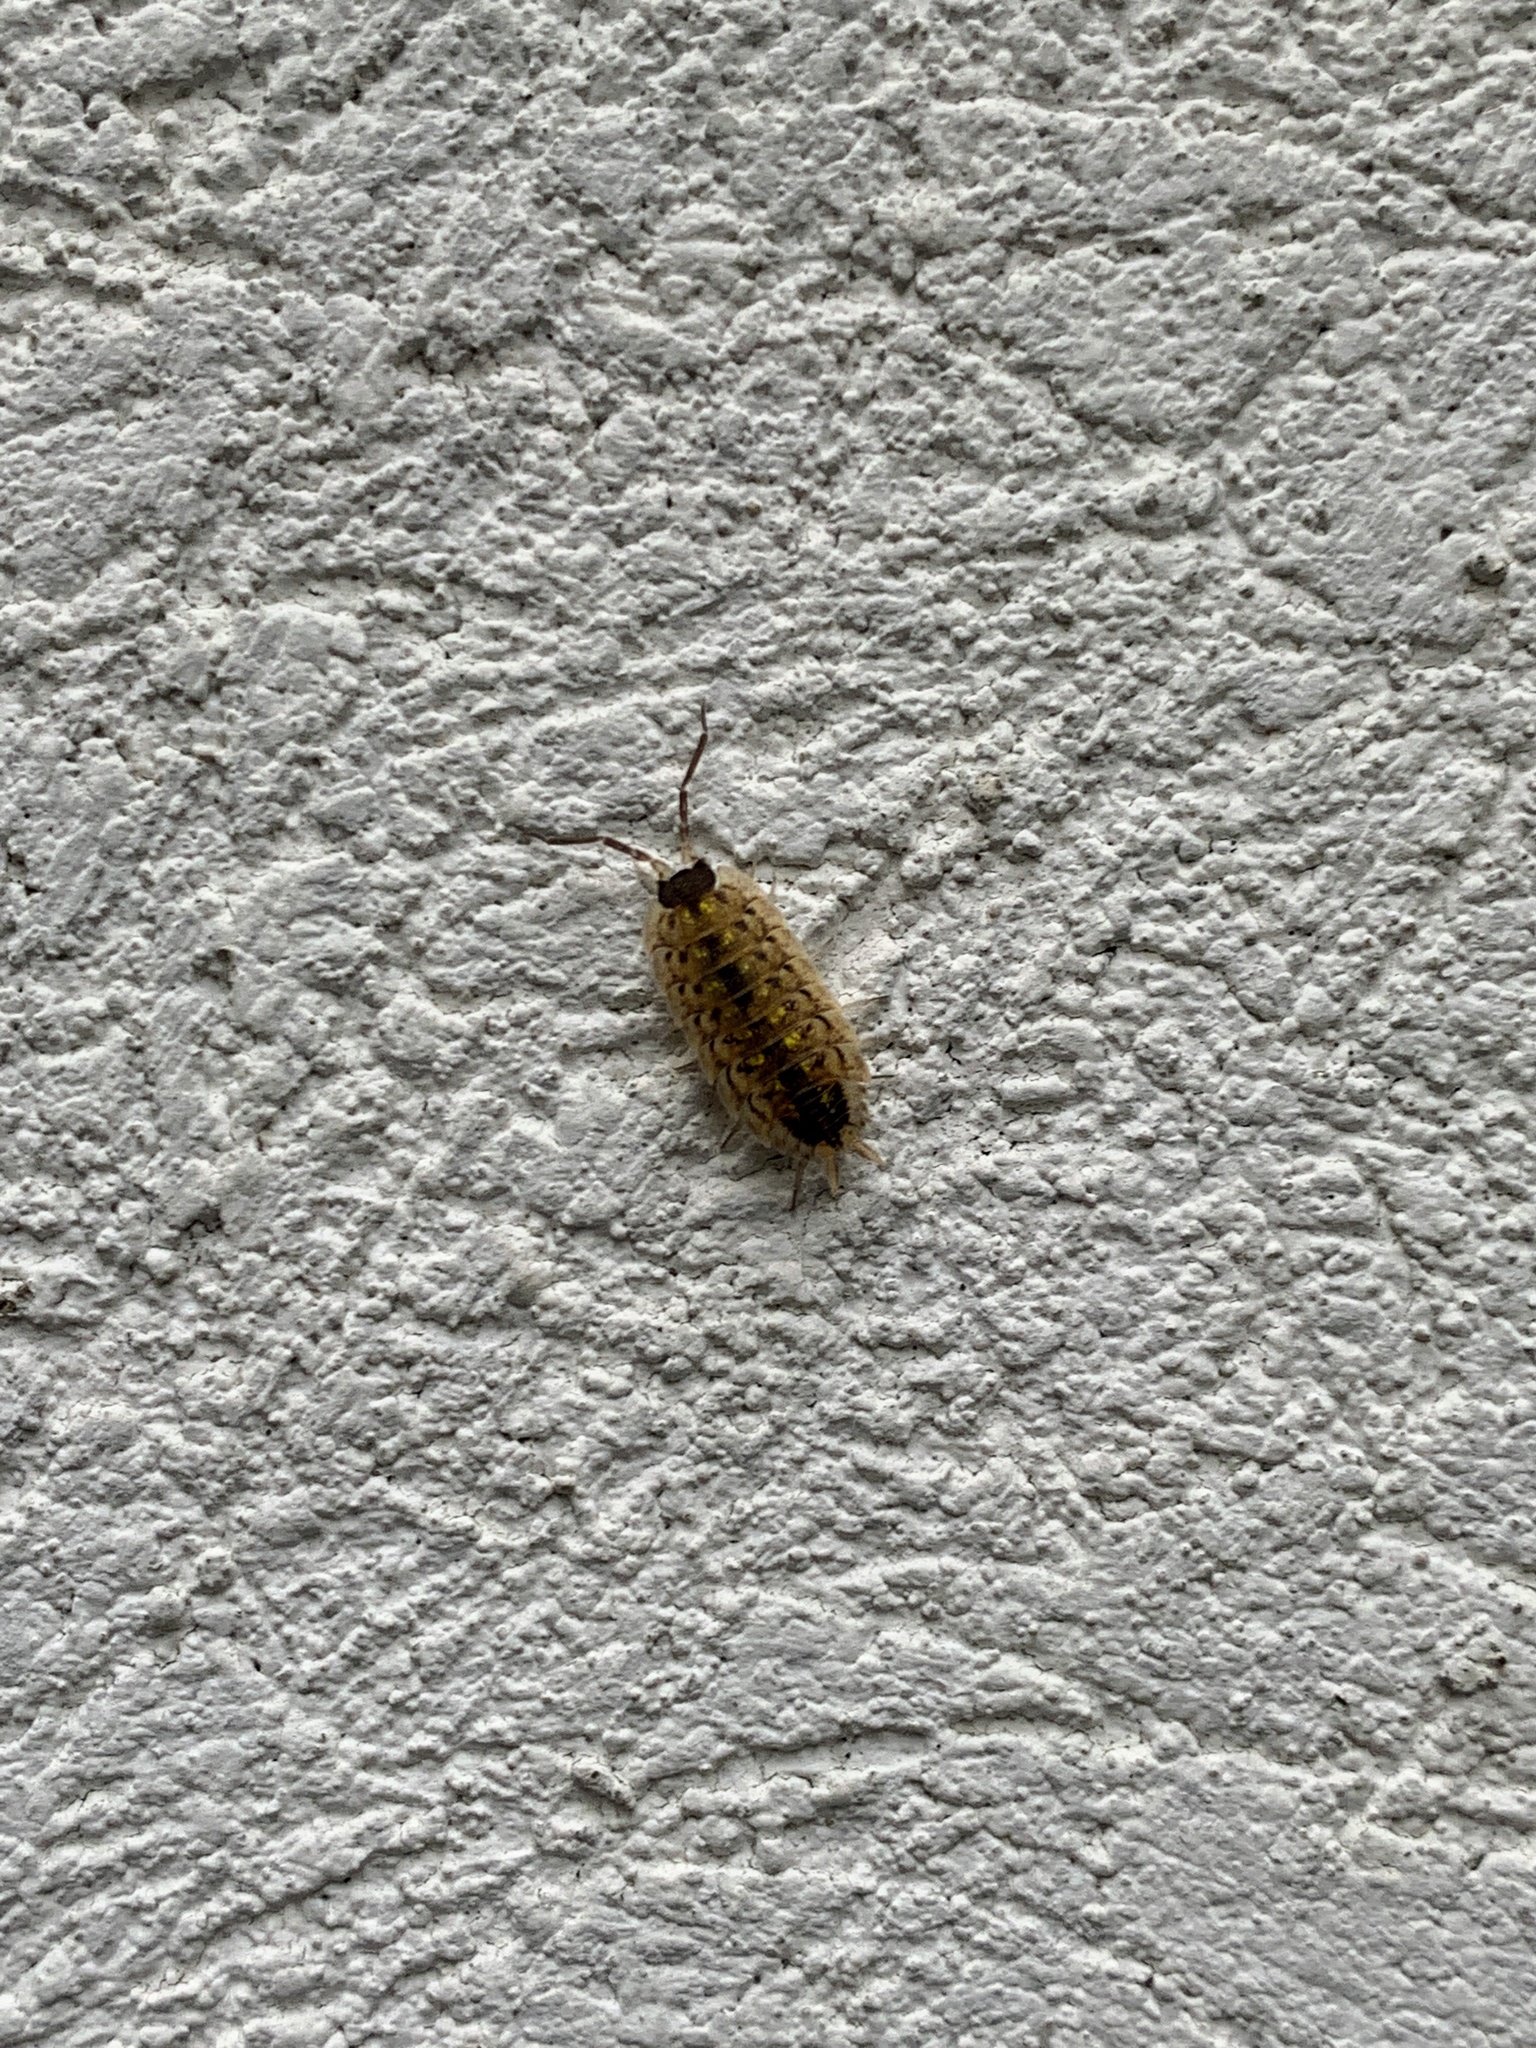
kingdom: Animalia
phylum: Arthropoda
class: Malacostraca
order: Isopoda
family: Porcellionidae
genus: Porcellio
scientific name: Porcellio spinicornis
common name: Painted woodlouse
